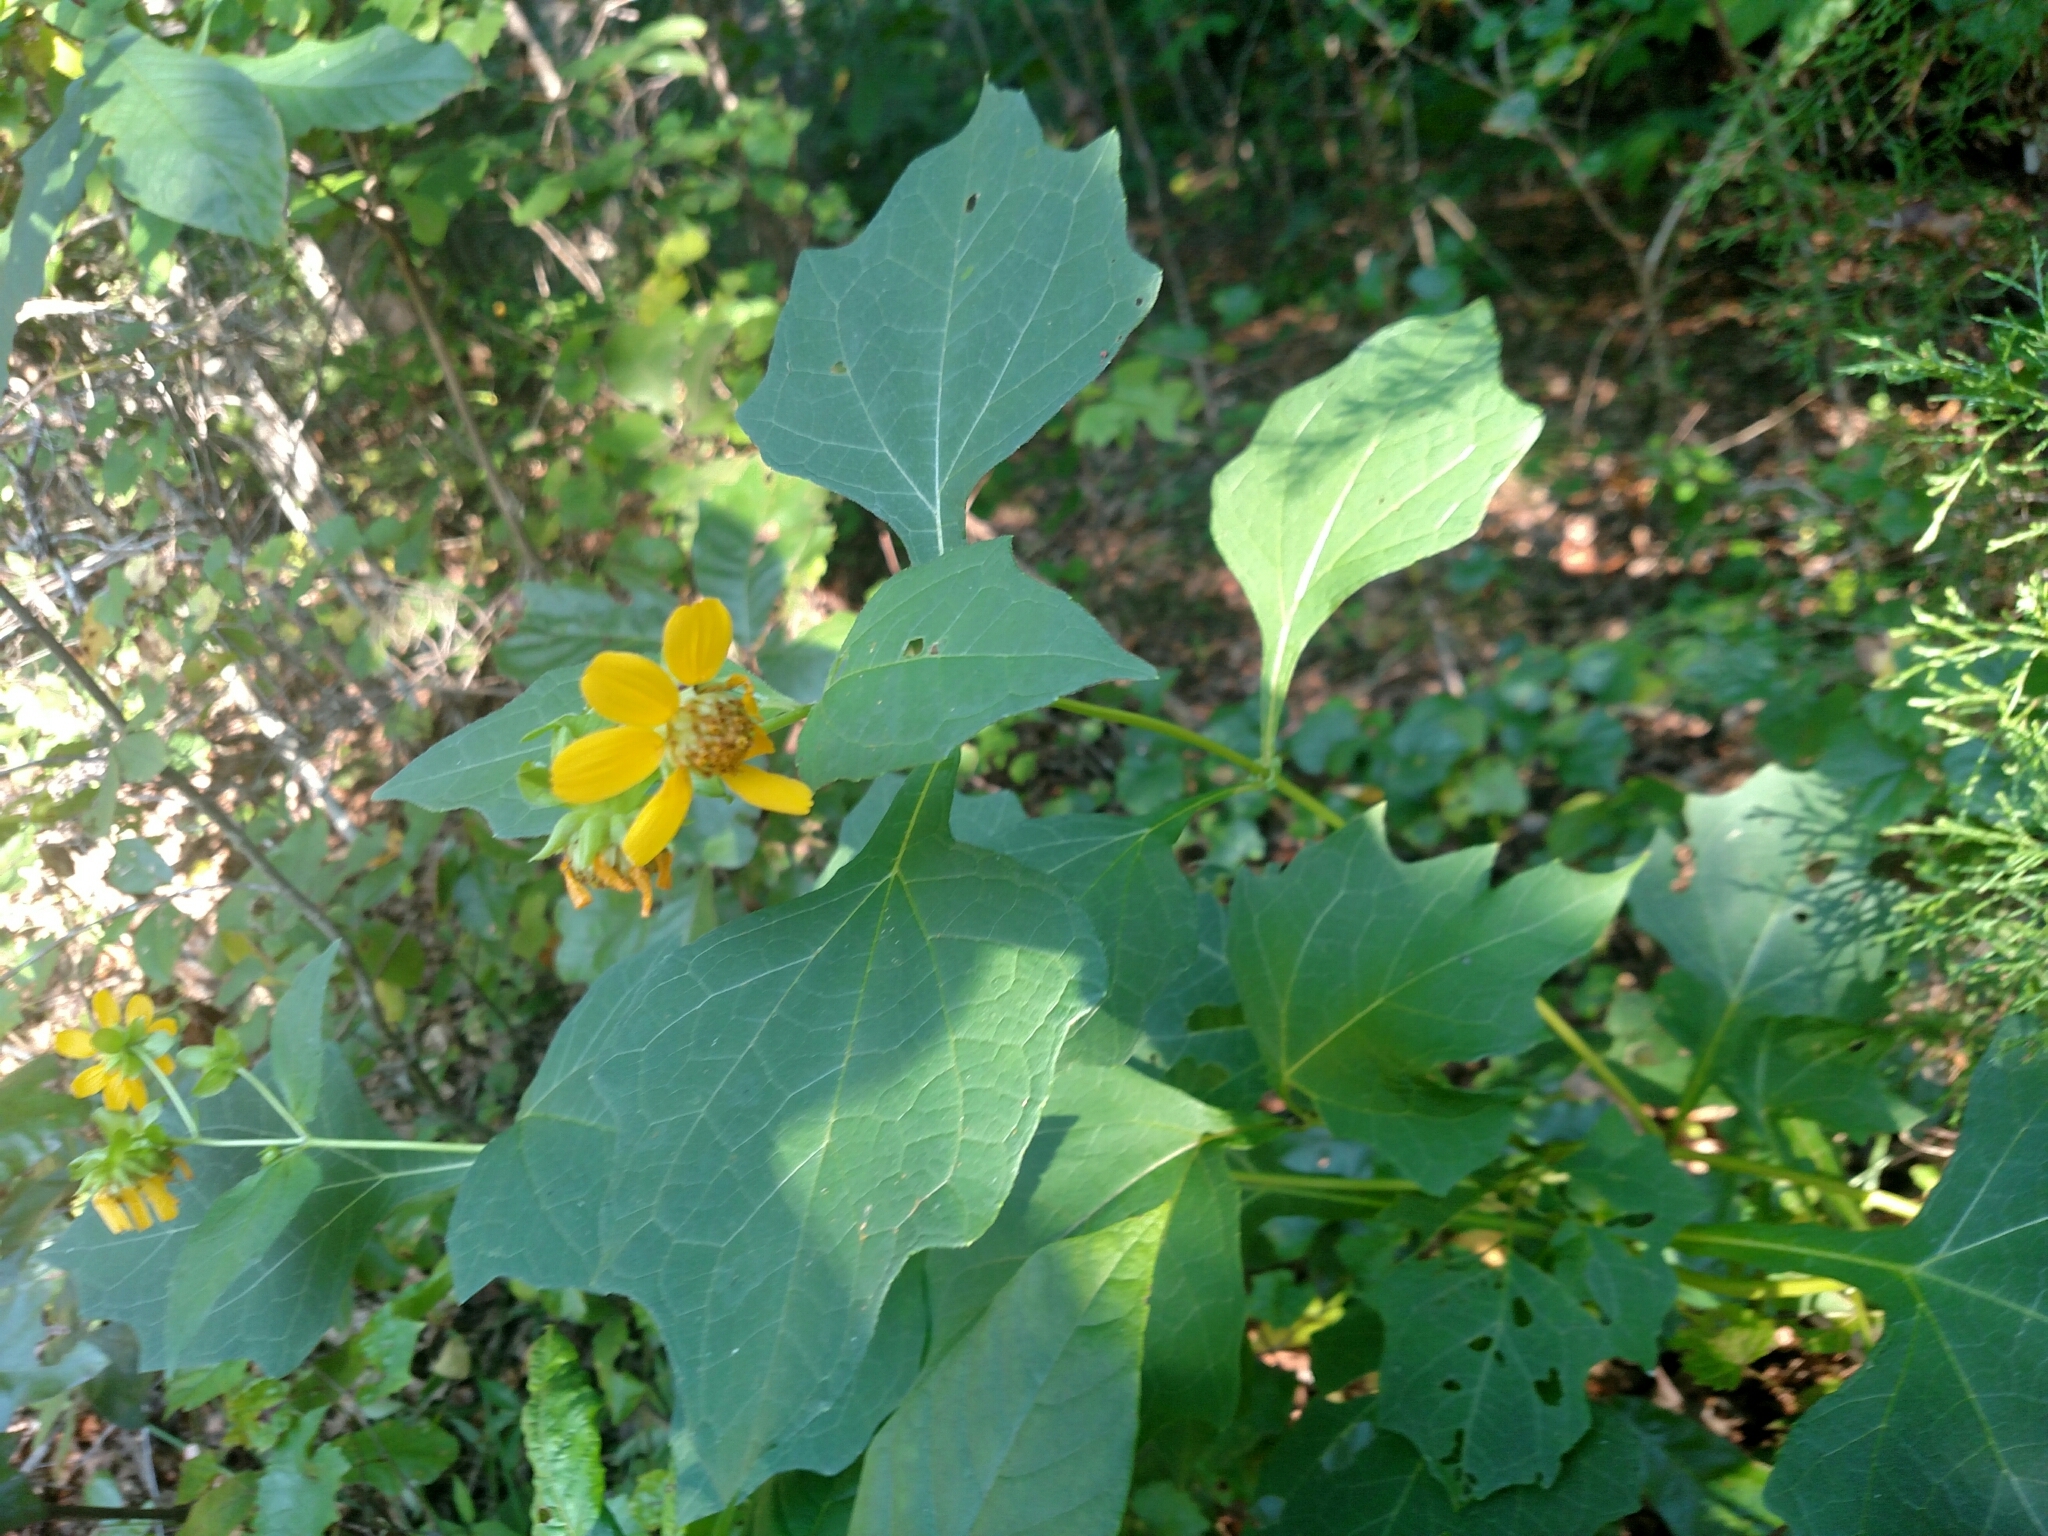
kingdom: Plantae
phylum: Tracheophyta
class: Magnoliopsida
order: Asterales
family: Asteraceae
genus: Smallanthus
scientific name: Smallanthus uvedalia
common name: Bear's-foot
